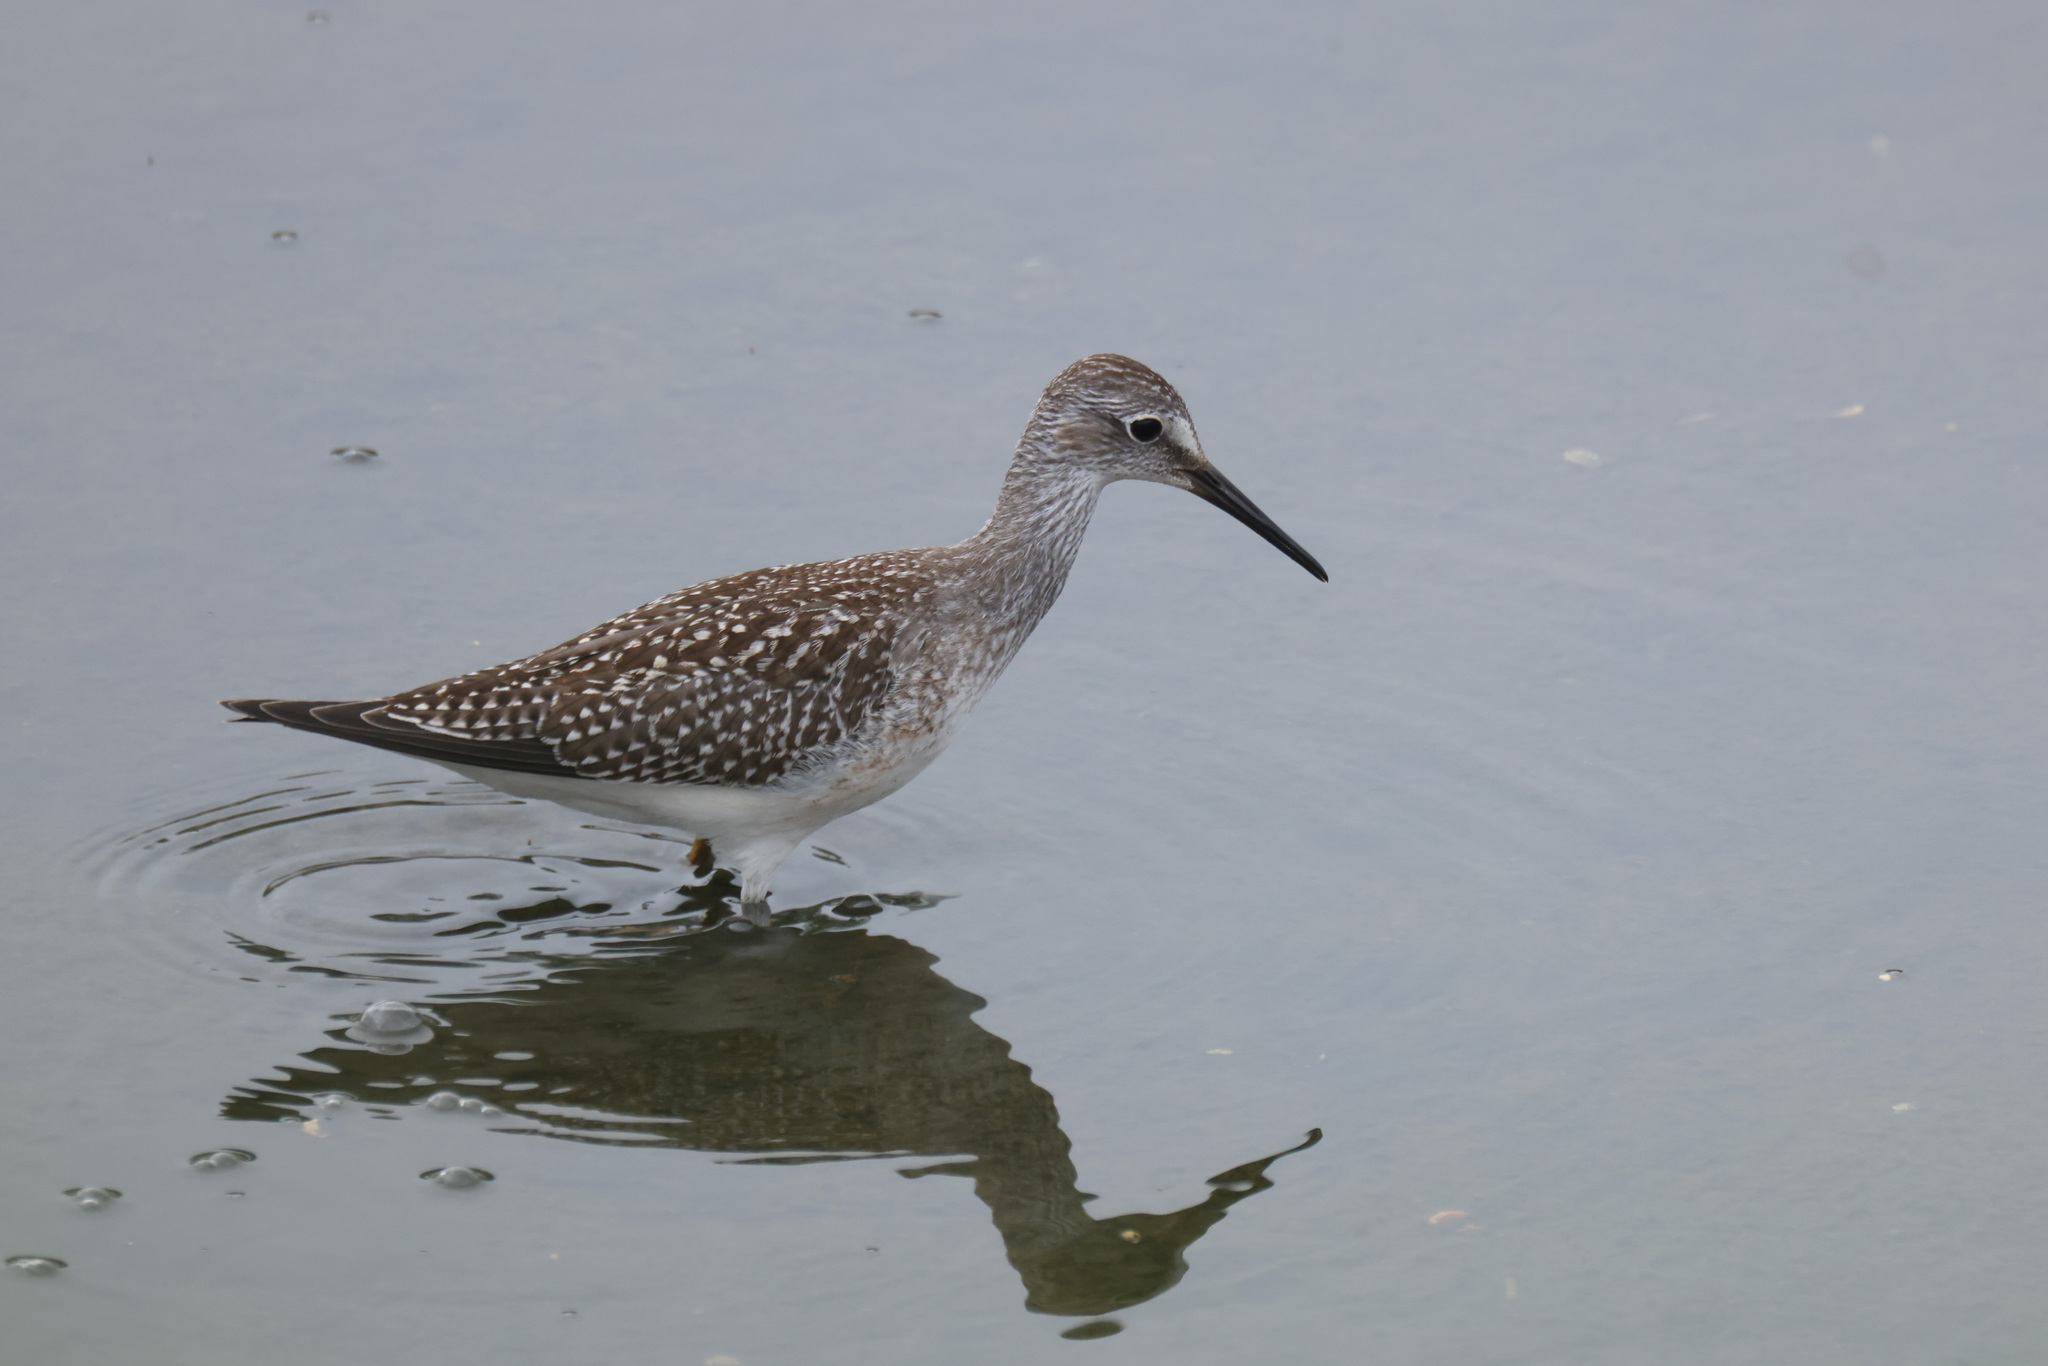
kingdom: Animalia
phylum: Chordata
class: Aves
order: Charadriiformes
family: Scolopacidae
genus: Tringa
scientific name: Tringa flavipes
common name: Lesser yellowlegs
